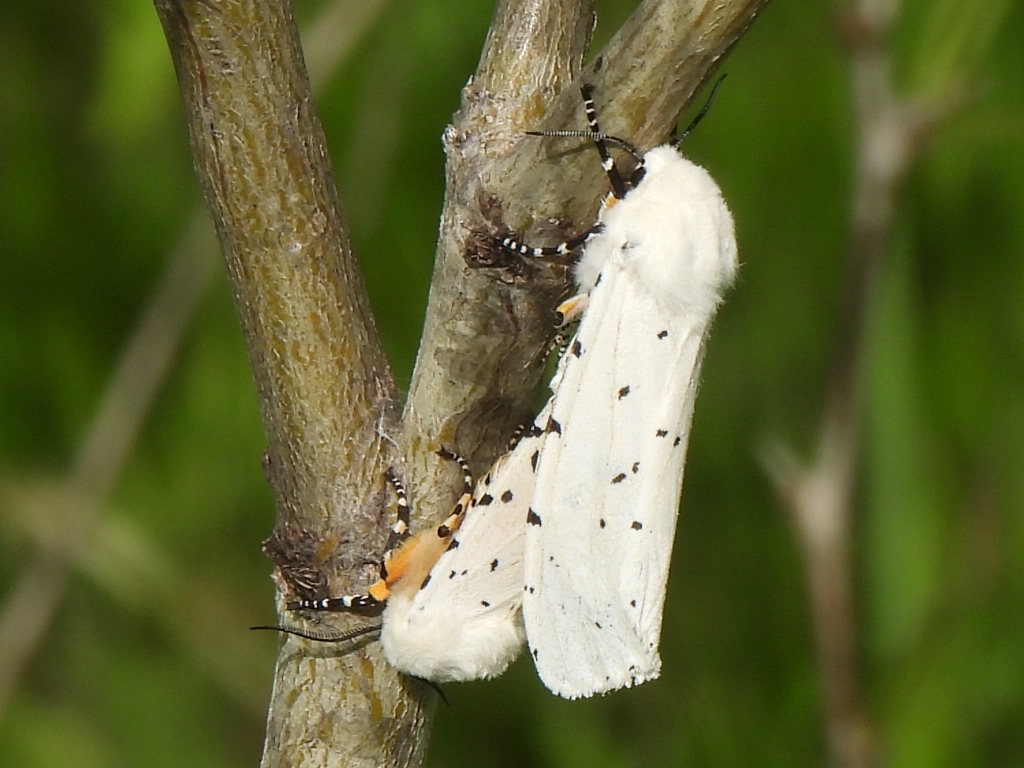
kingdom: Animalia
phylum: Arthropoda
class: Insecta
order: Lepidoptera
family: Erebidae
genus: Estigmene
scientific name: Estigmene acrea
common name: Salt marsh moth
